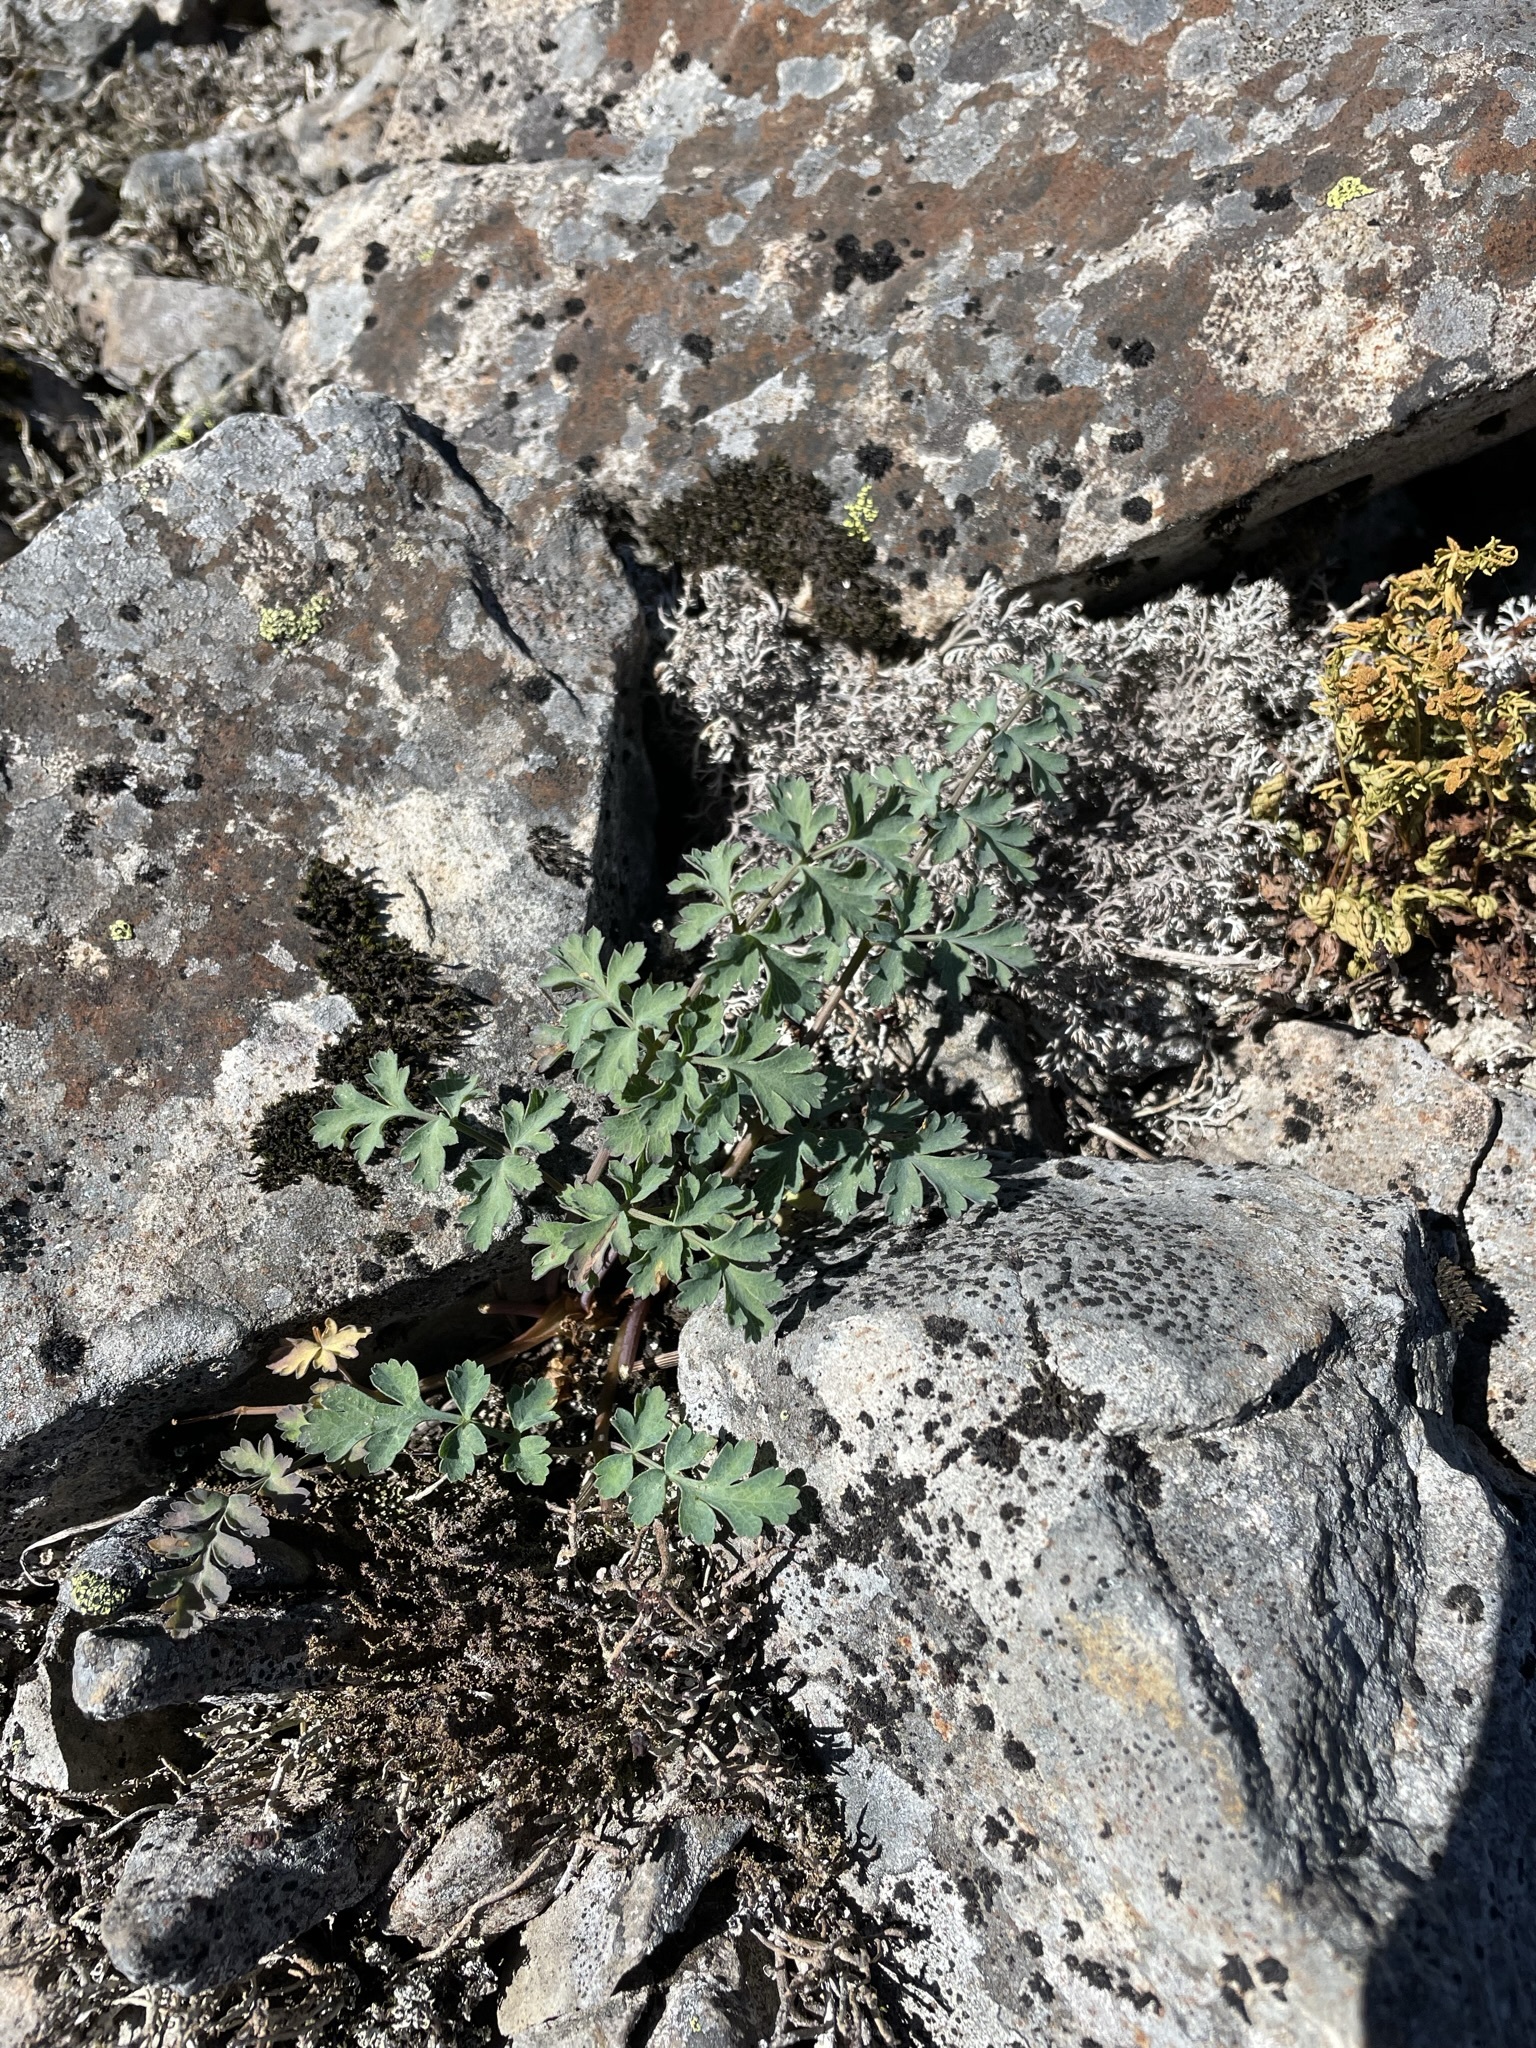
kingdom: Plantae
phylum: Tracheophyta
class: Magnoliopsida
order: Apiales
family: Apiaceae
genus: Lomatium
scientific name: Lomatium martindalei
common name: Cascade desert-parsley
